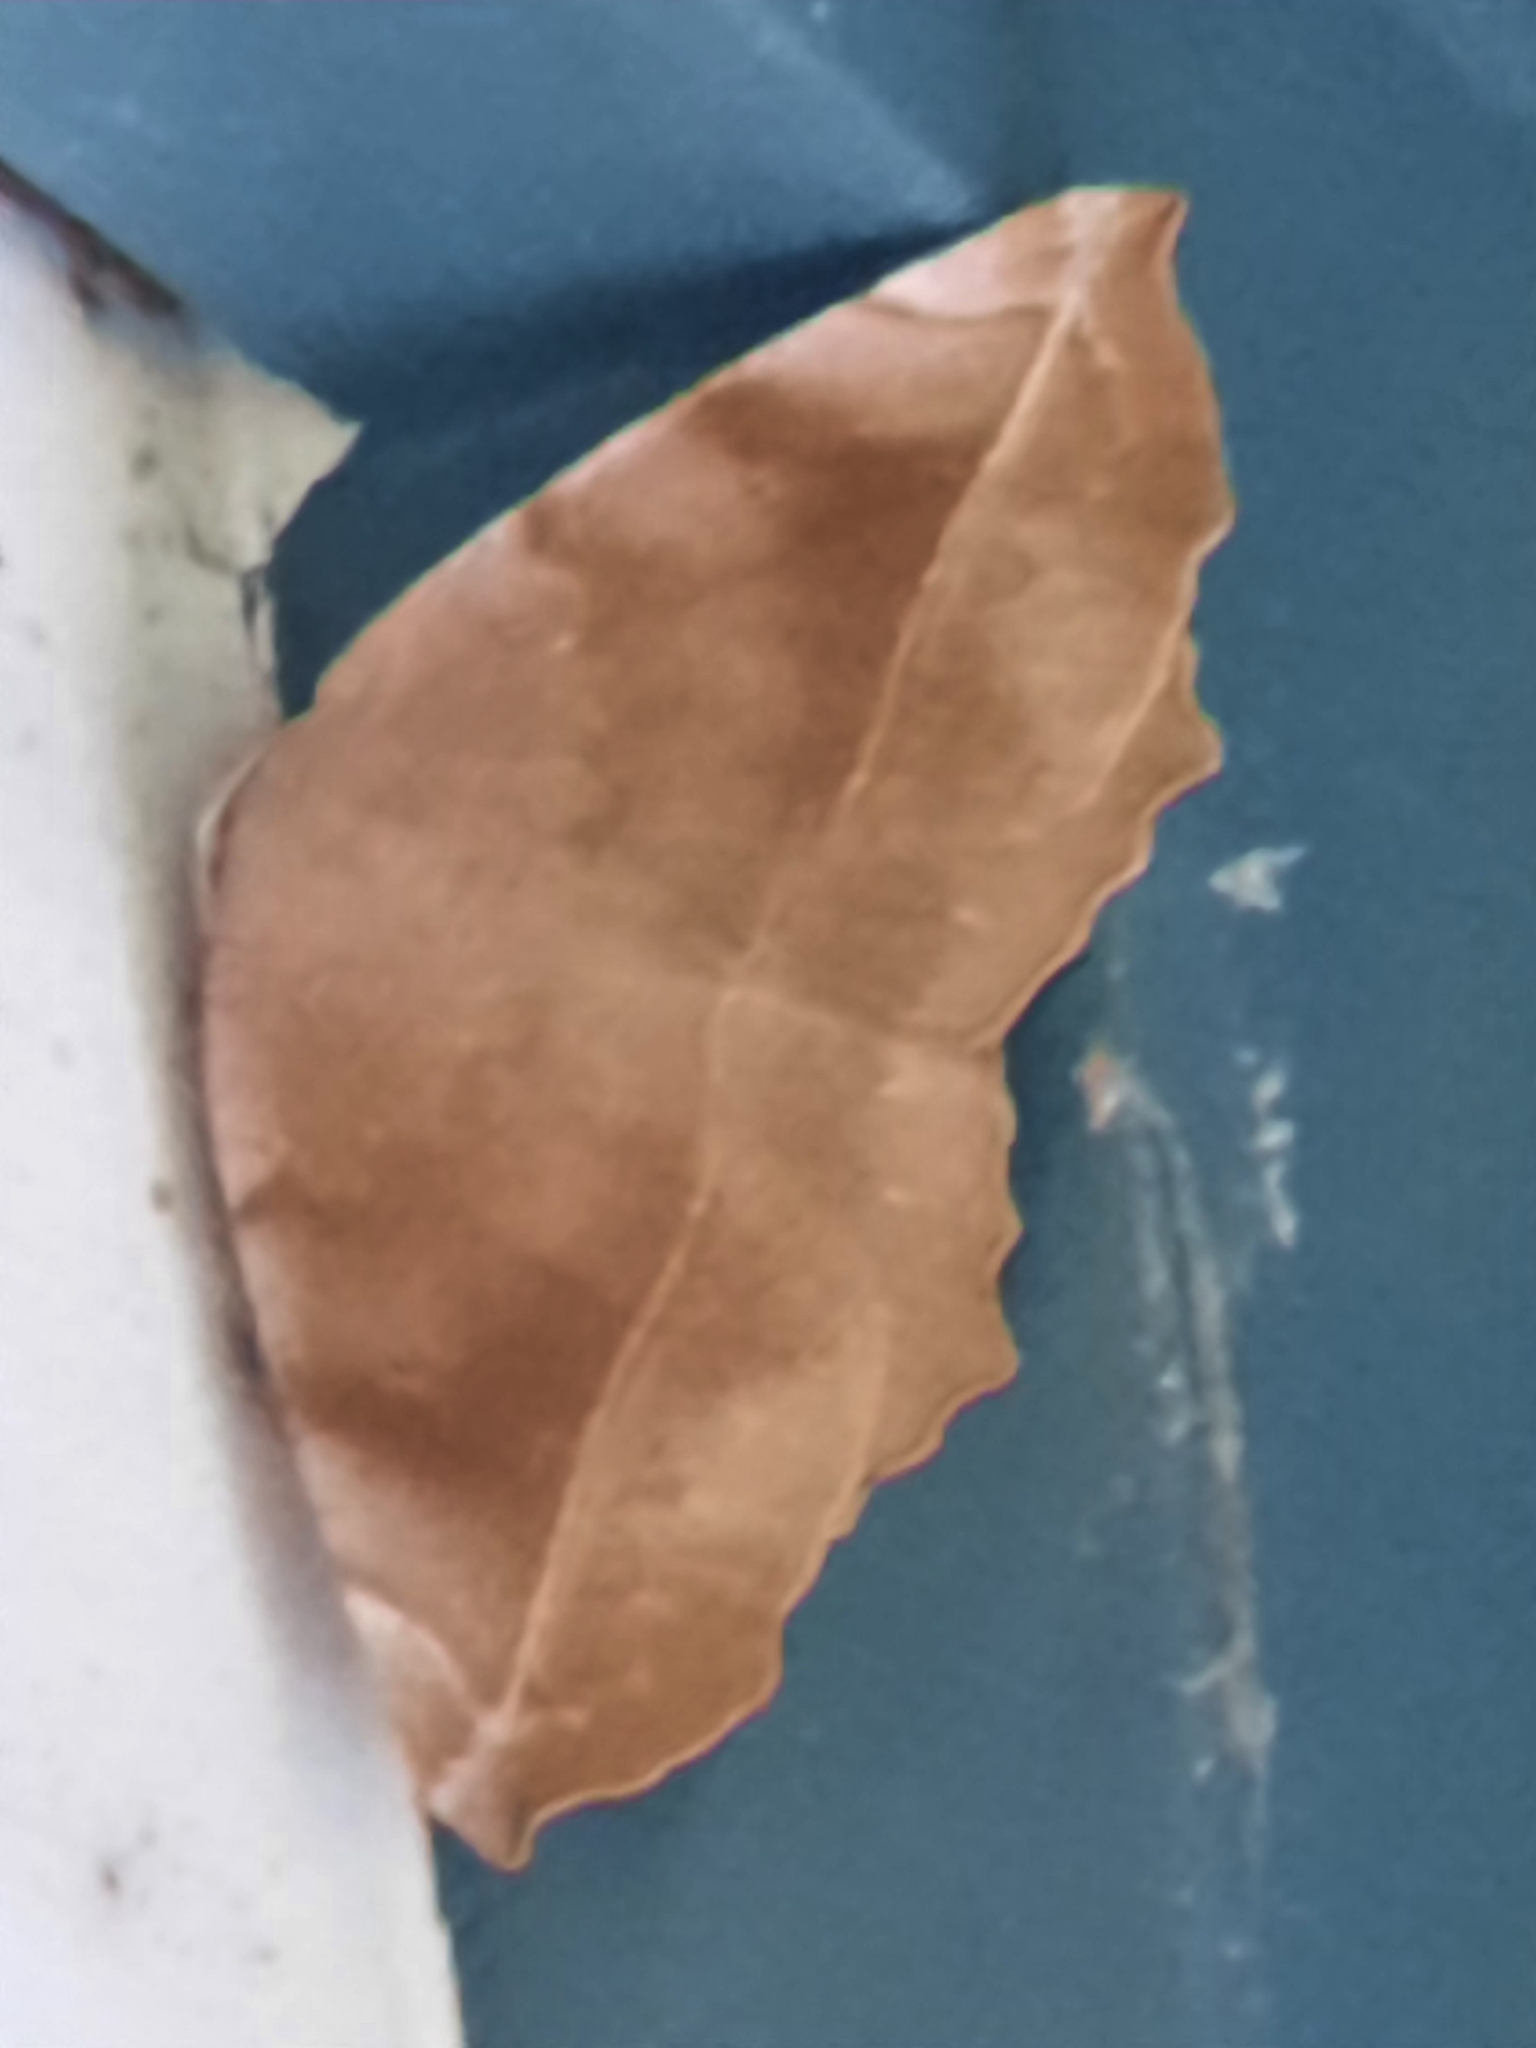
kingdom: Animalia
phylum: Arthropoda
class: Insecta
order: Lepidoptera
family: Geometridae
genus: Eutrapela
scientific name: Eutrapela clemataria
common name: Curved-toothed geometer
